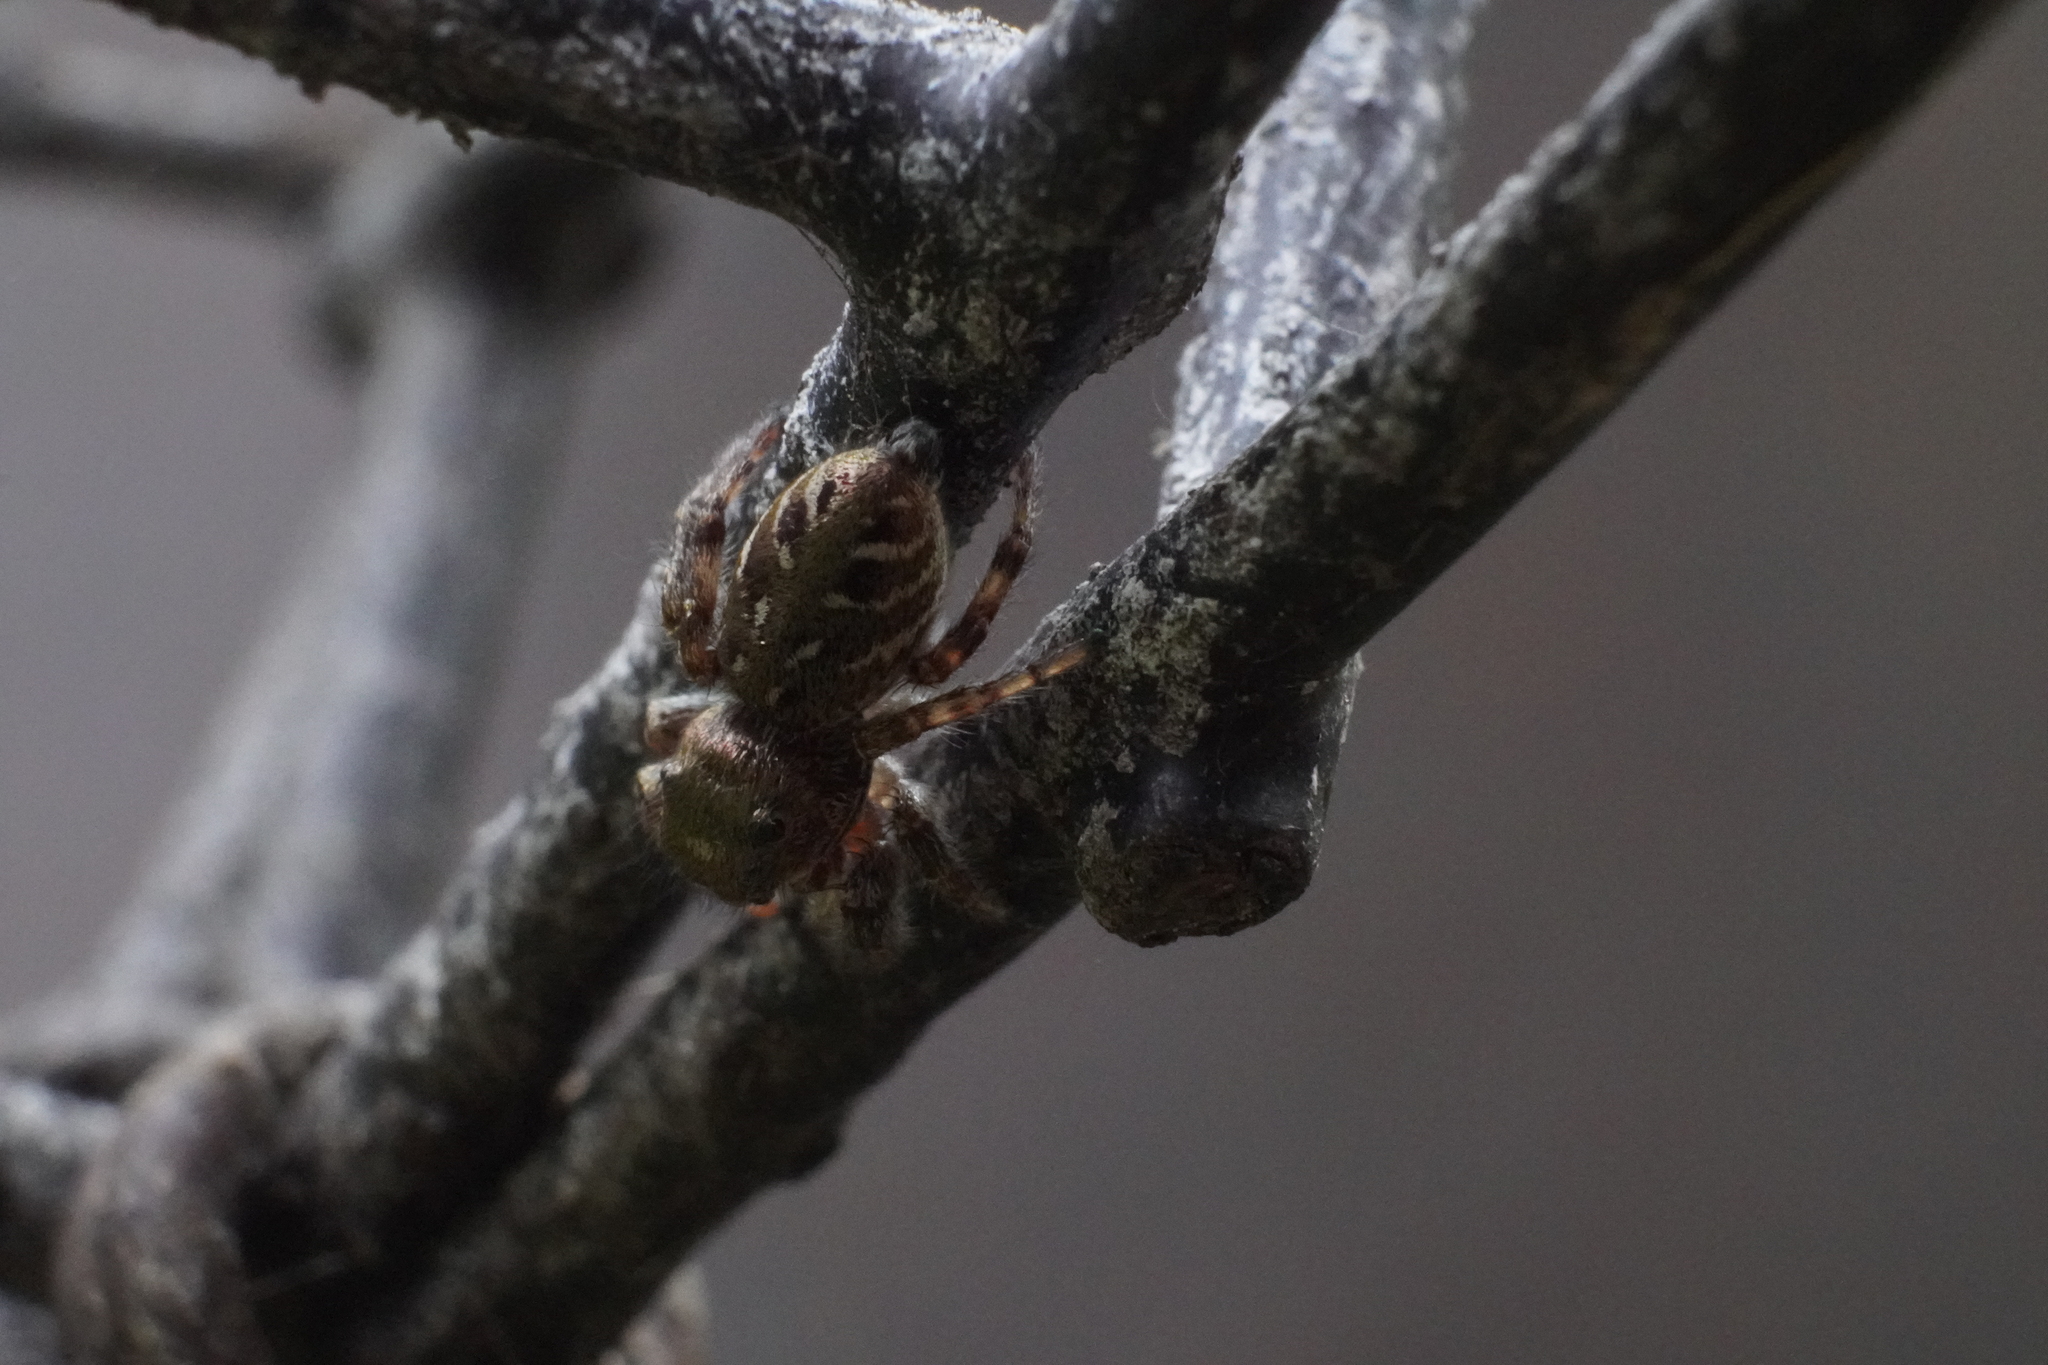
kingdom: Animalia
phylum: Arthropoda
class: Arachnida
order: Araneae
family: Salticidae
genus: Eris
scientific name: Eris militaris
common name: Bronze jumper
